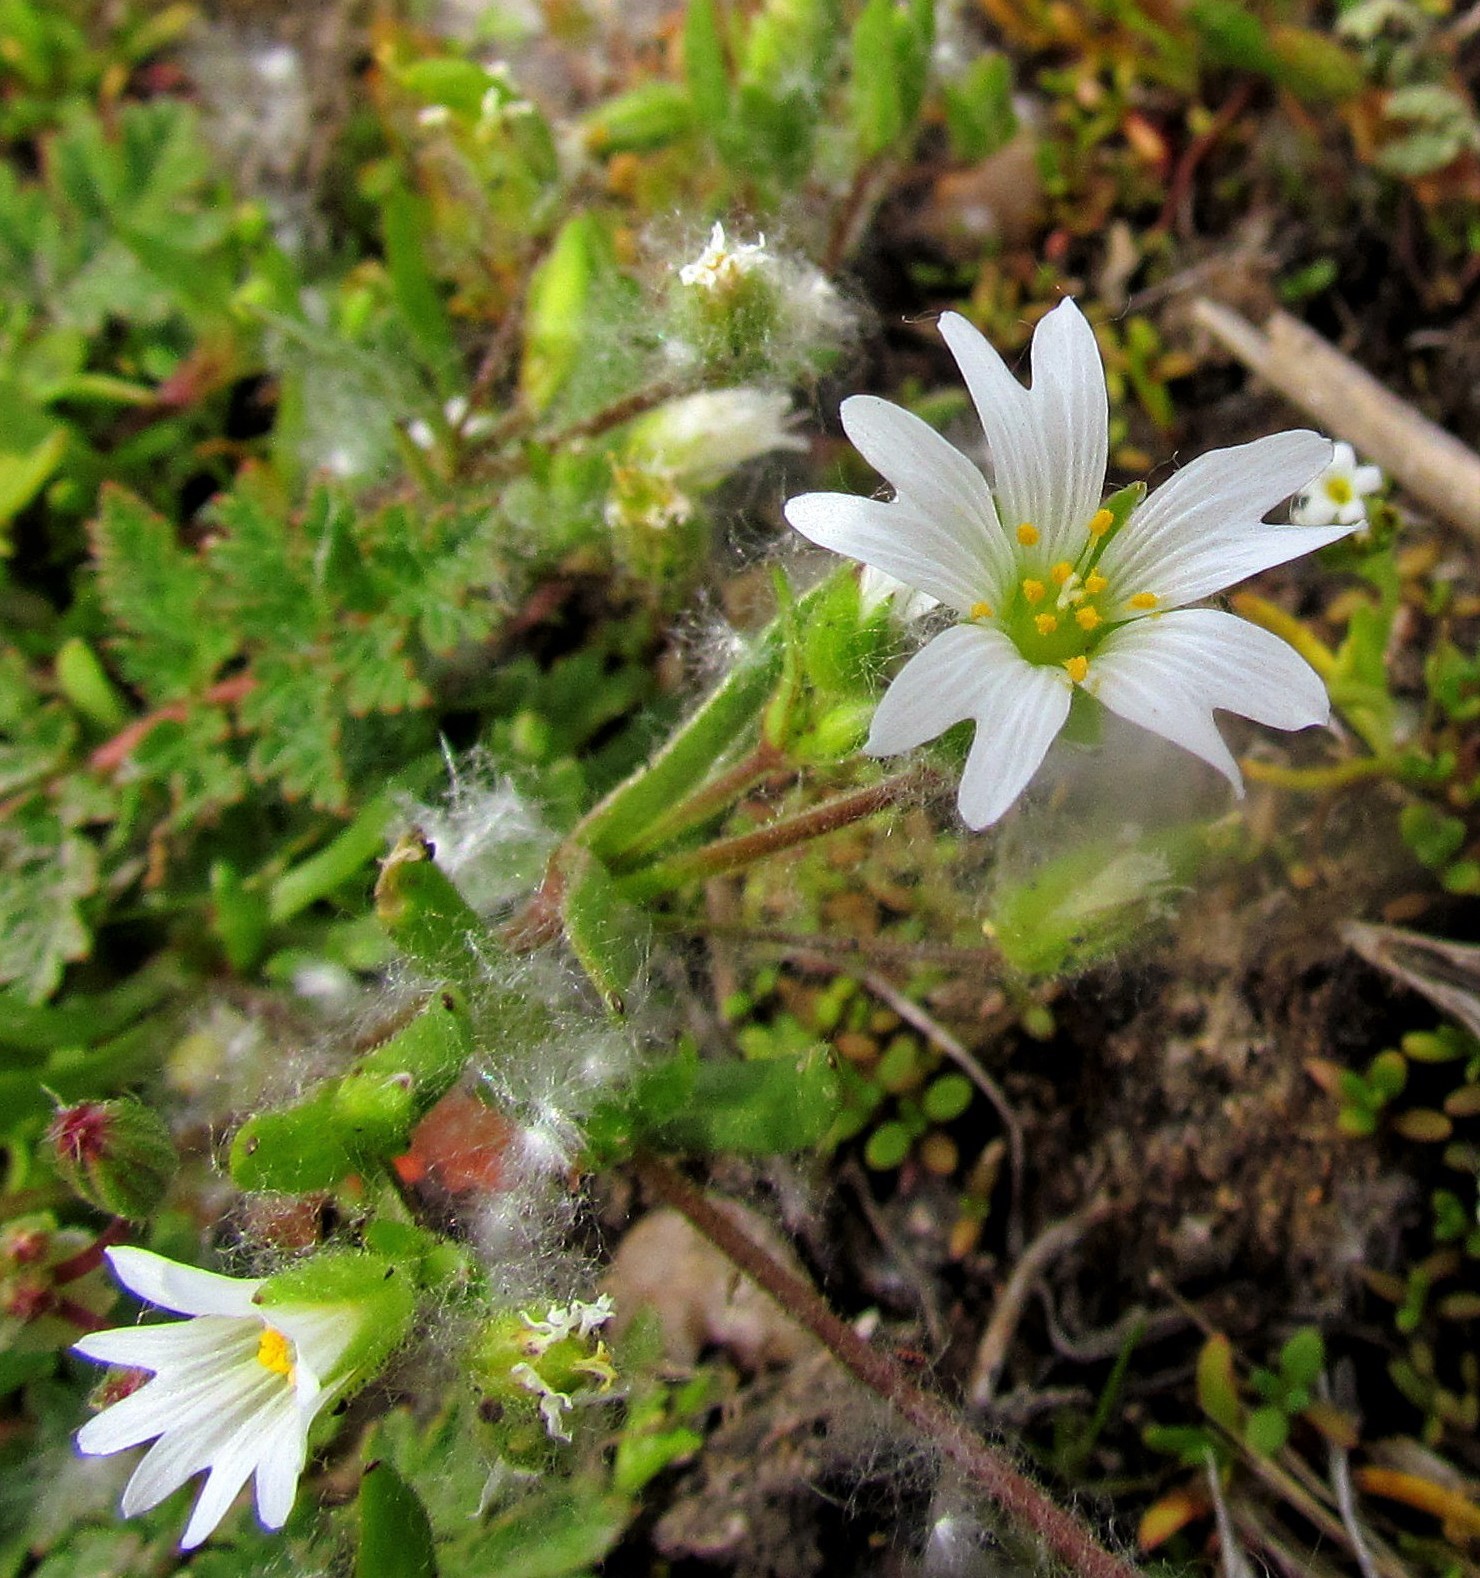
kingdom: Plantae
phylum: Tracheophyta
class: Magnoliopsida
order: Caryophyllales
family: Caryophyllaceae
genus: Cerastium
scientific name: Cerastium arvense
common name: Field mouse-ear
